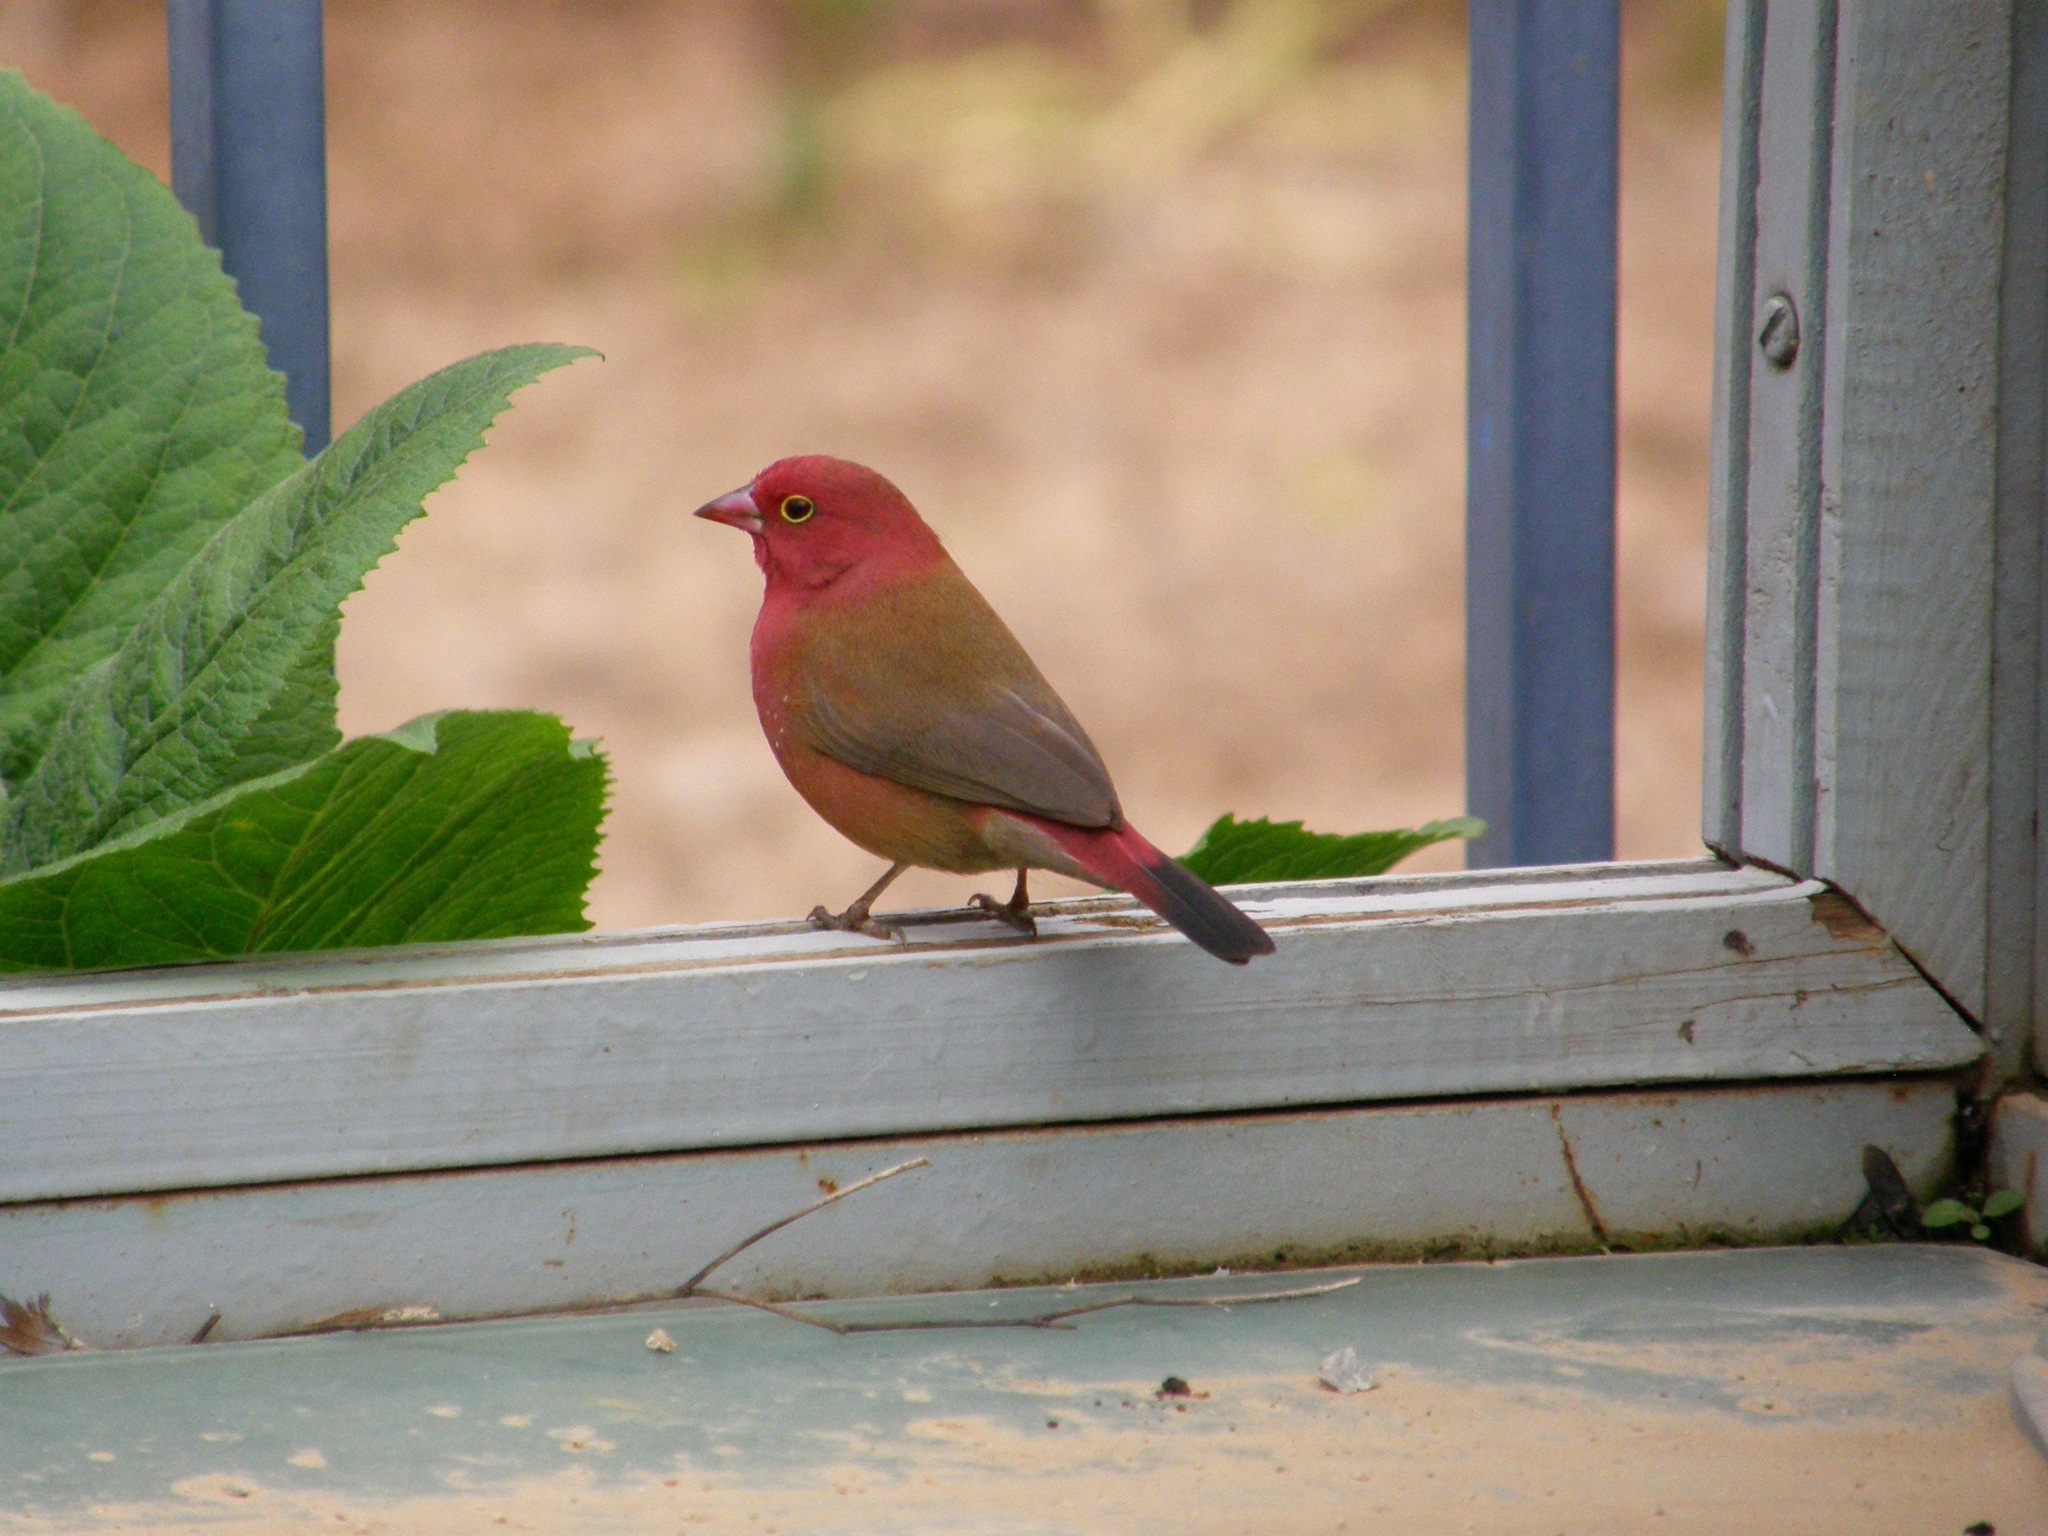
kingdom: Animalia
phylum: Chordata
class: Aves
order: Passeriformes
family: Estrildidae
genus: Lagonosticta
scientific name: Lagonosticta senegala
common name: Red-billed firefinch
